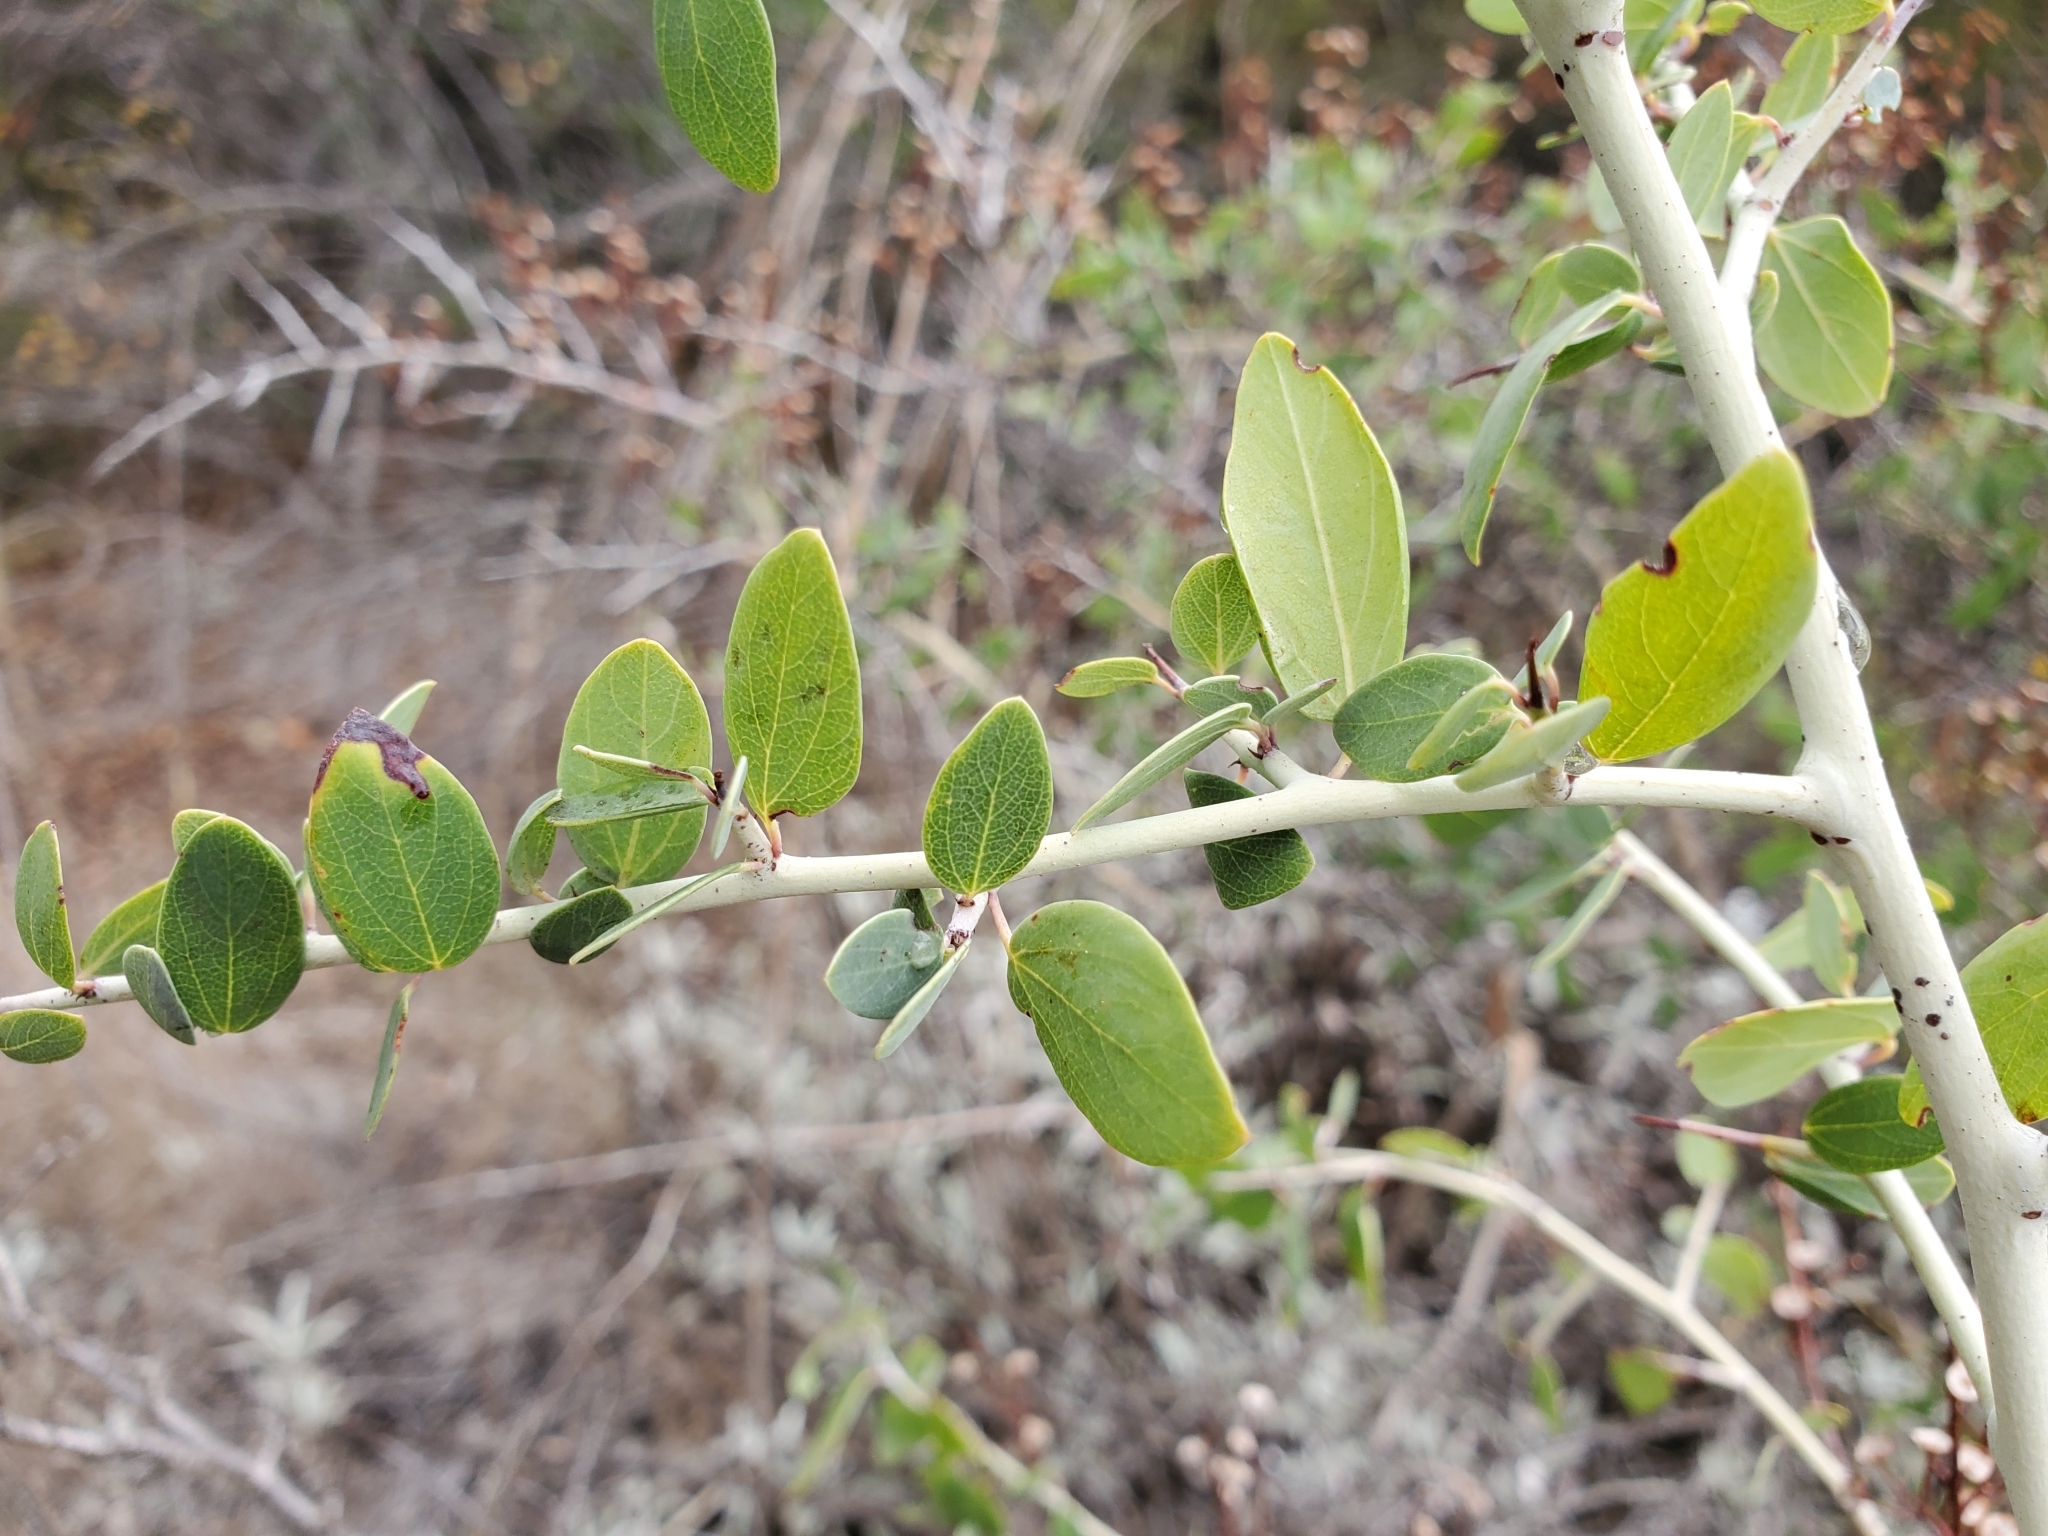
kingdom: Plantae
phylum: Tracheophyta
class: Magnoliopsida
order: Rosales
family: Rhamnaceae
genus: Ceanothus
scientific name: Ceanothus leucodermis
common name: Chaparral whitethorn
